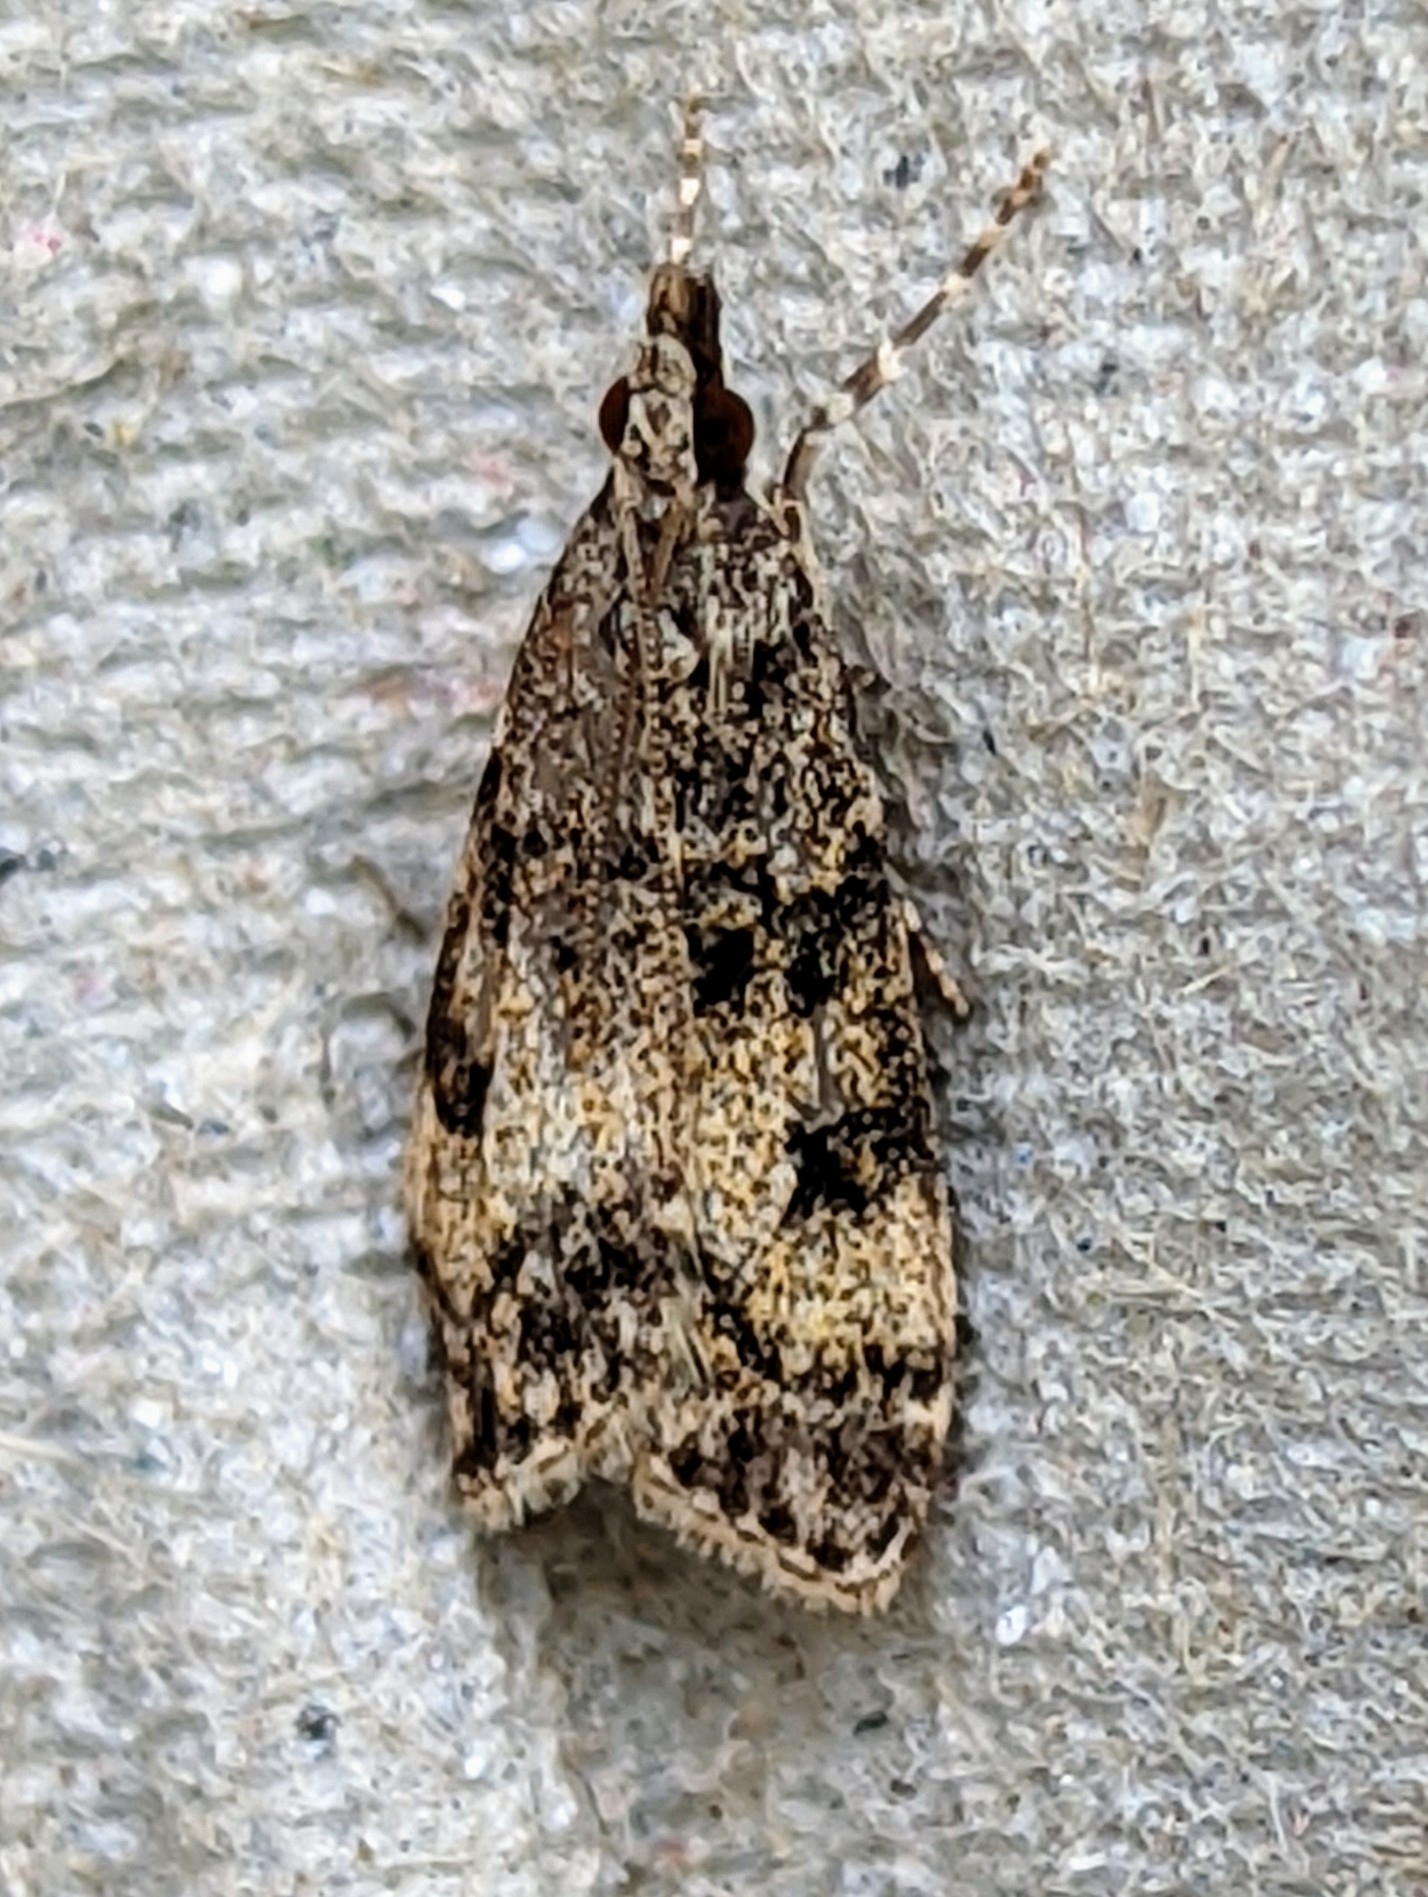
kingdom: Animalia
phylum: Arthropoda
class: Insecta
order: Lepidoptera
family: Crambidae
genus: Eudonia
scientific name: Eudonia lacustrata
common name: Little grey
